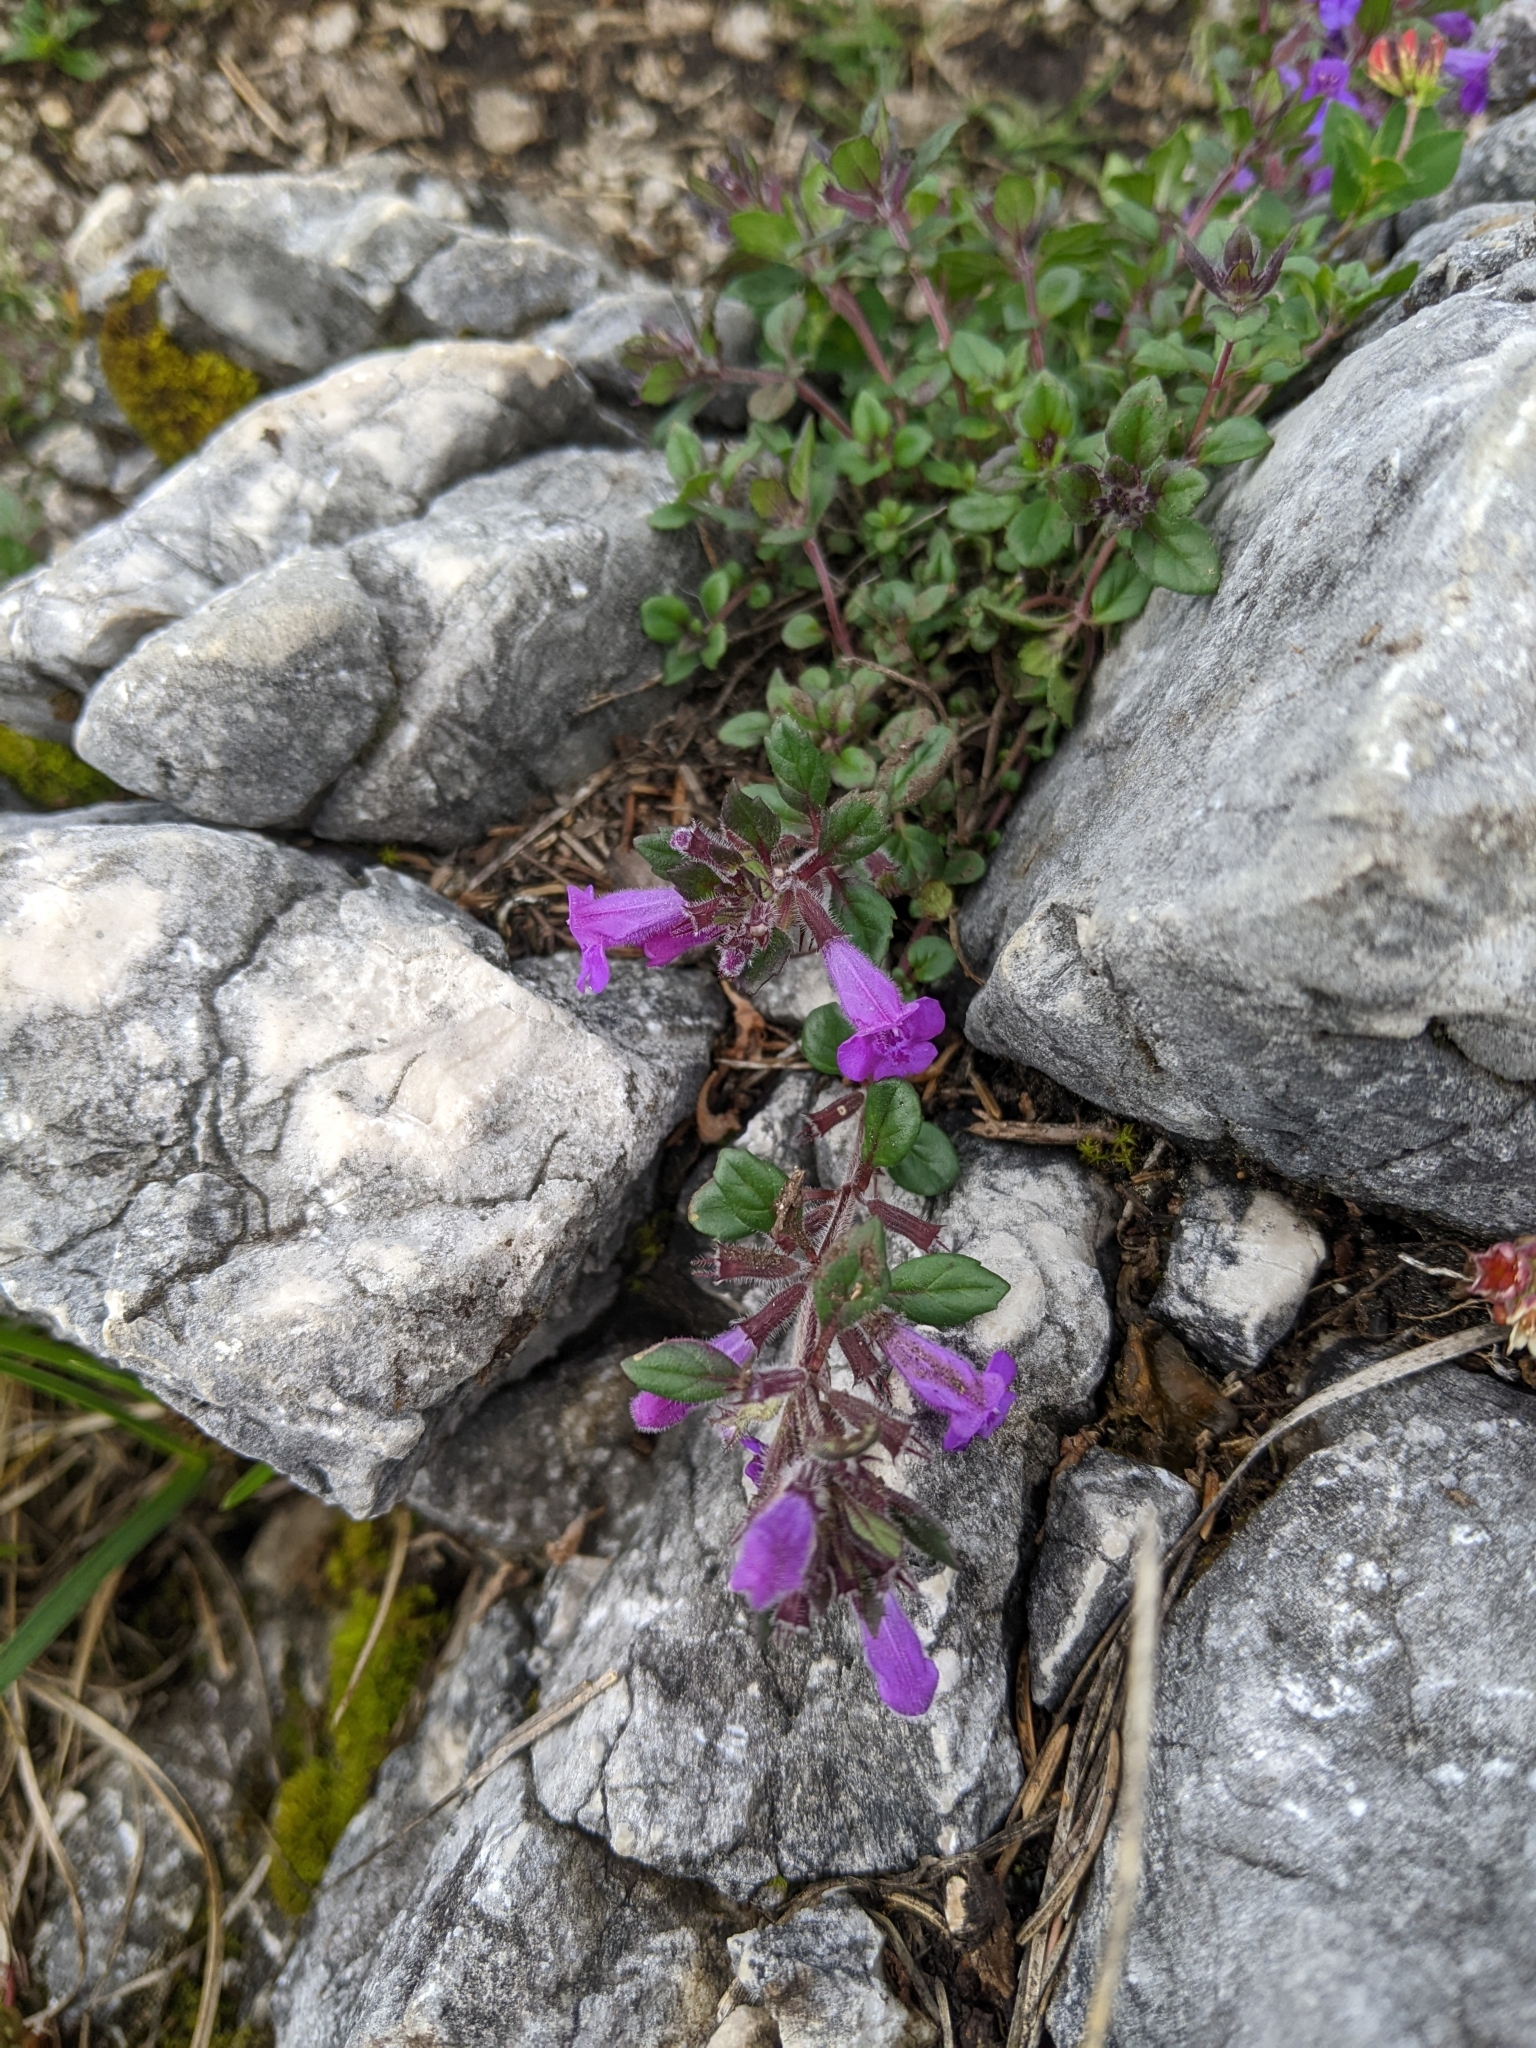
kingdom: Plantae
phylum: Tracheophyta
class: Magnoliopsida
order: Lamiales
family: Lamiaceae
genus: Clinopodium
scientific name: Clinopodium alpinum
